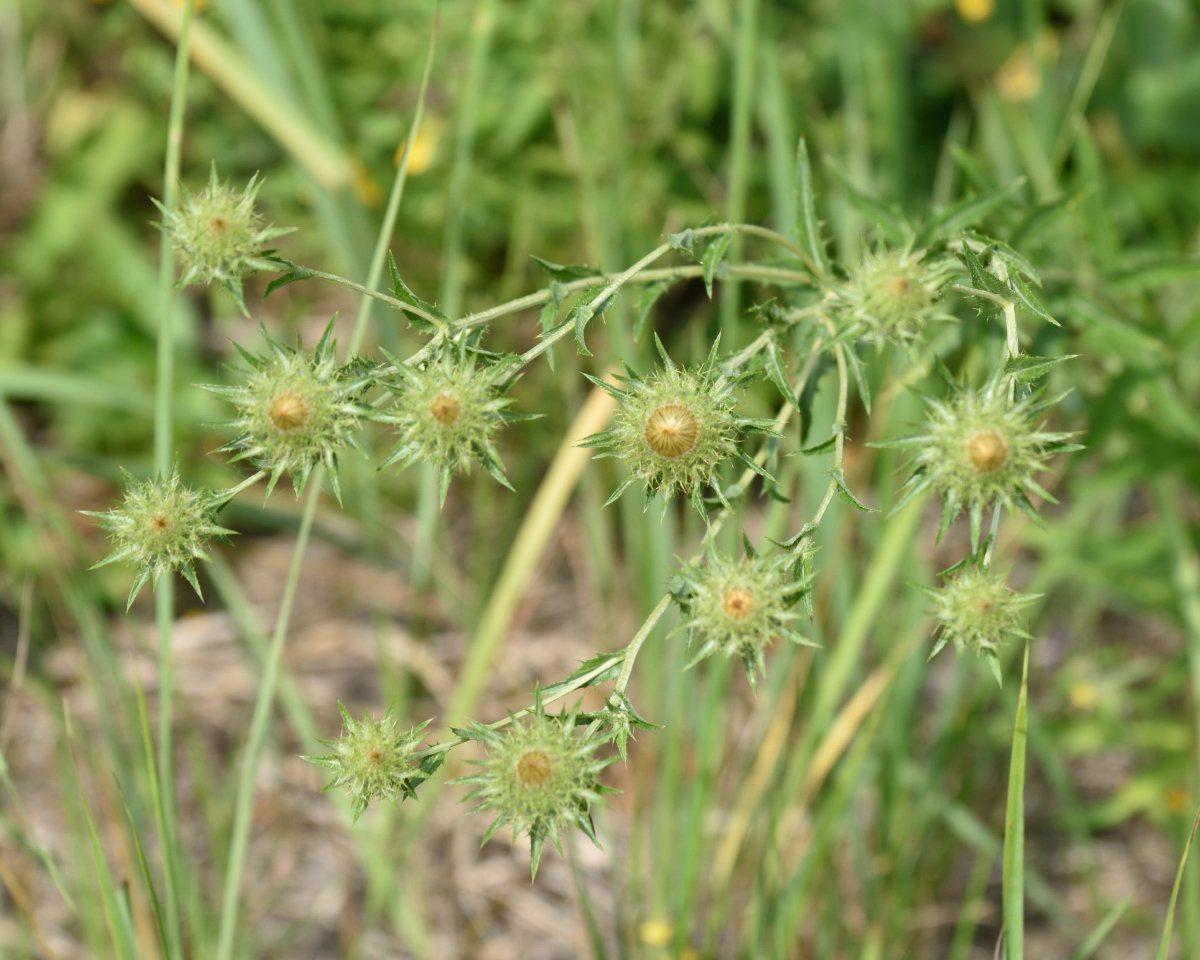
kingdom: Plantae
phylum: Tracheophyta
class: Magnoliopsida
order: Asterales
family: Asteraceae
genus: Carlina
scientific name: Carlina biebersteinii
